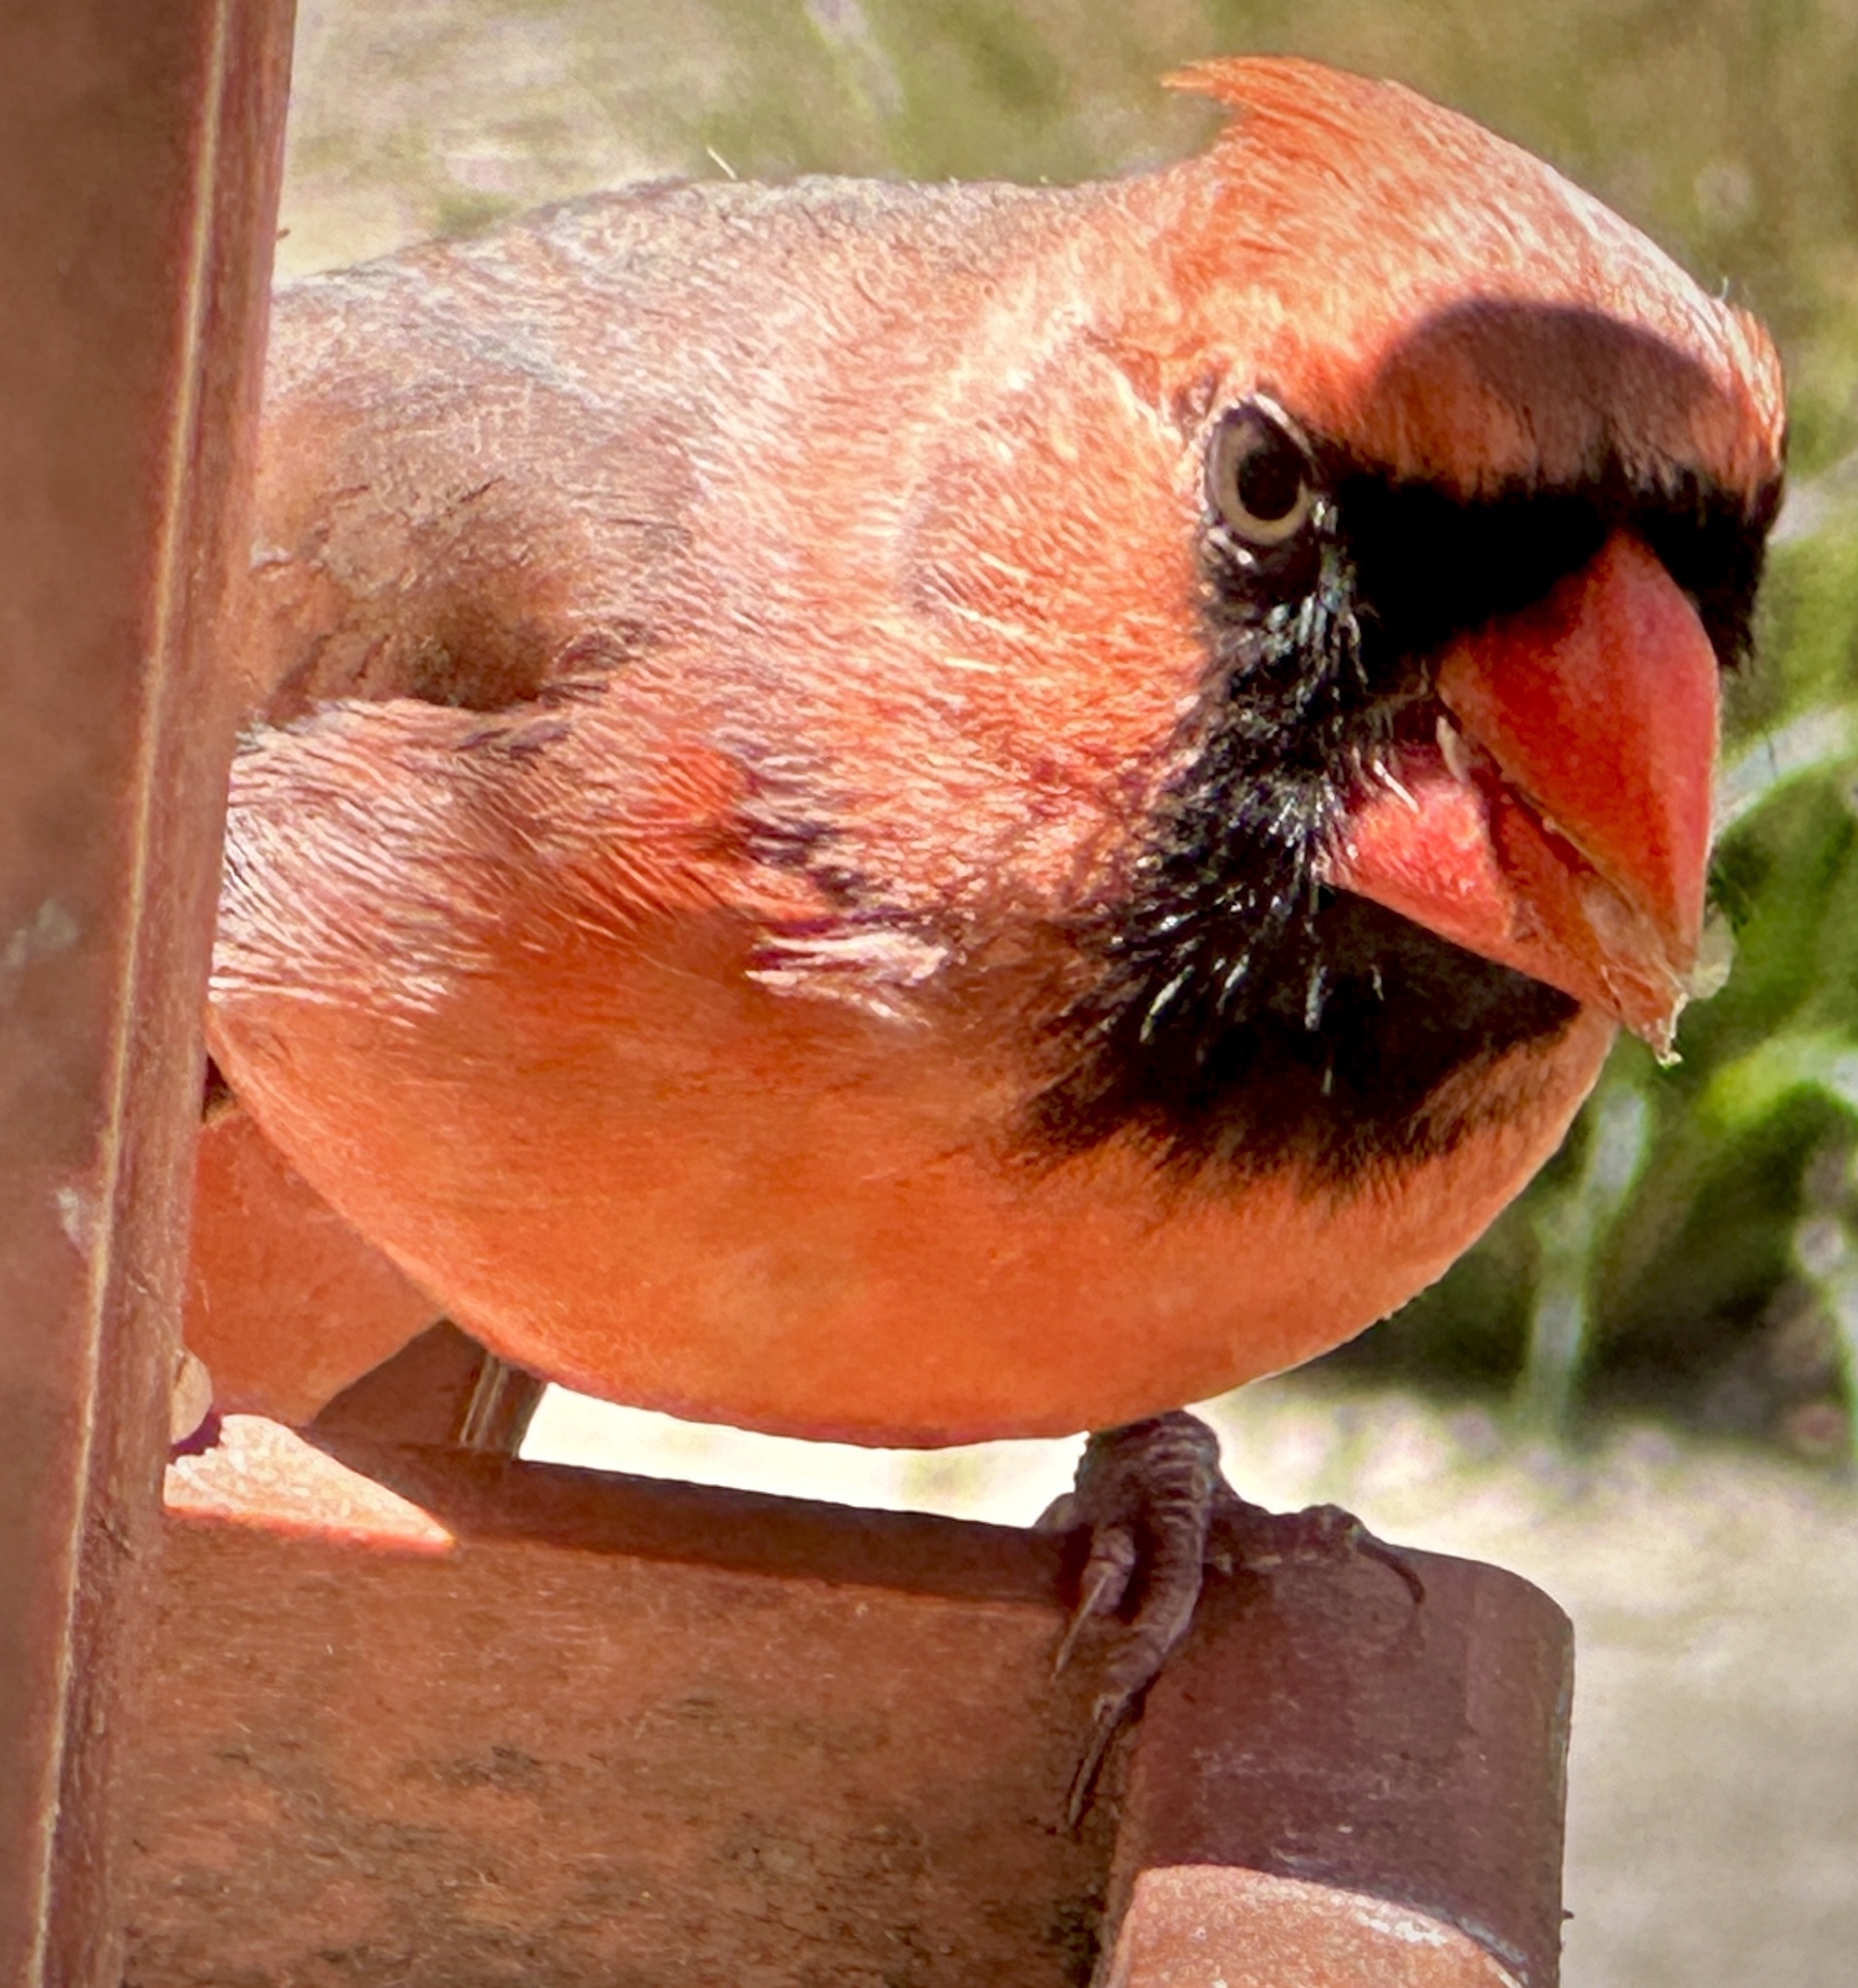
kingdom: Animalia
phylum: Chordata
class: Aves
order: Passeriformes
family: Cardinalidae
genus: Cardinalis
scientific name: Cardinalis cardinalis
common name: Northern cardinal
